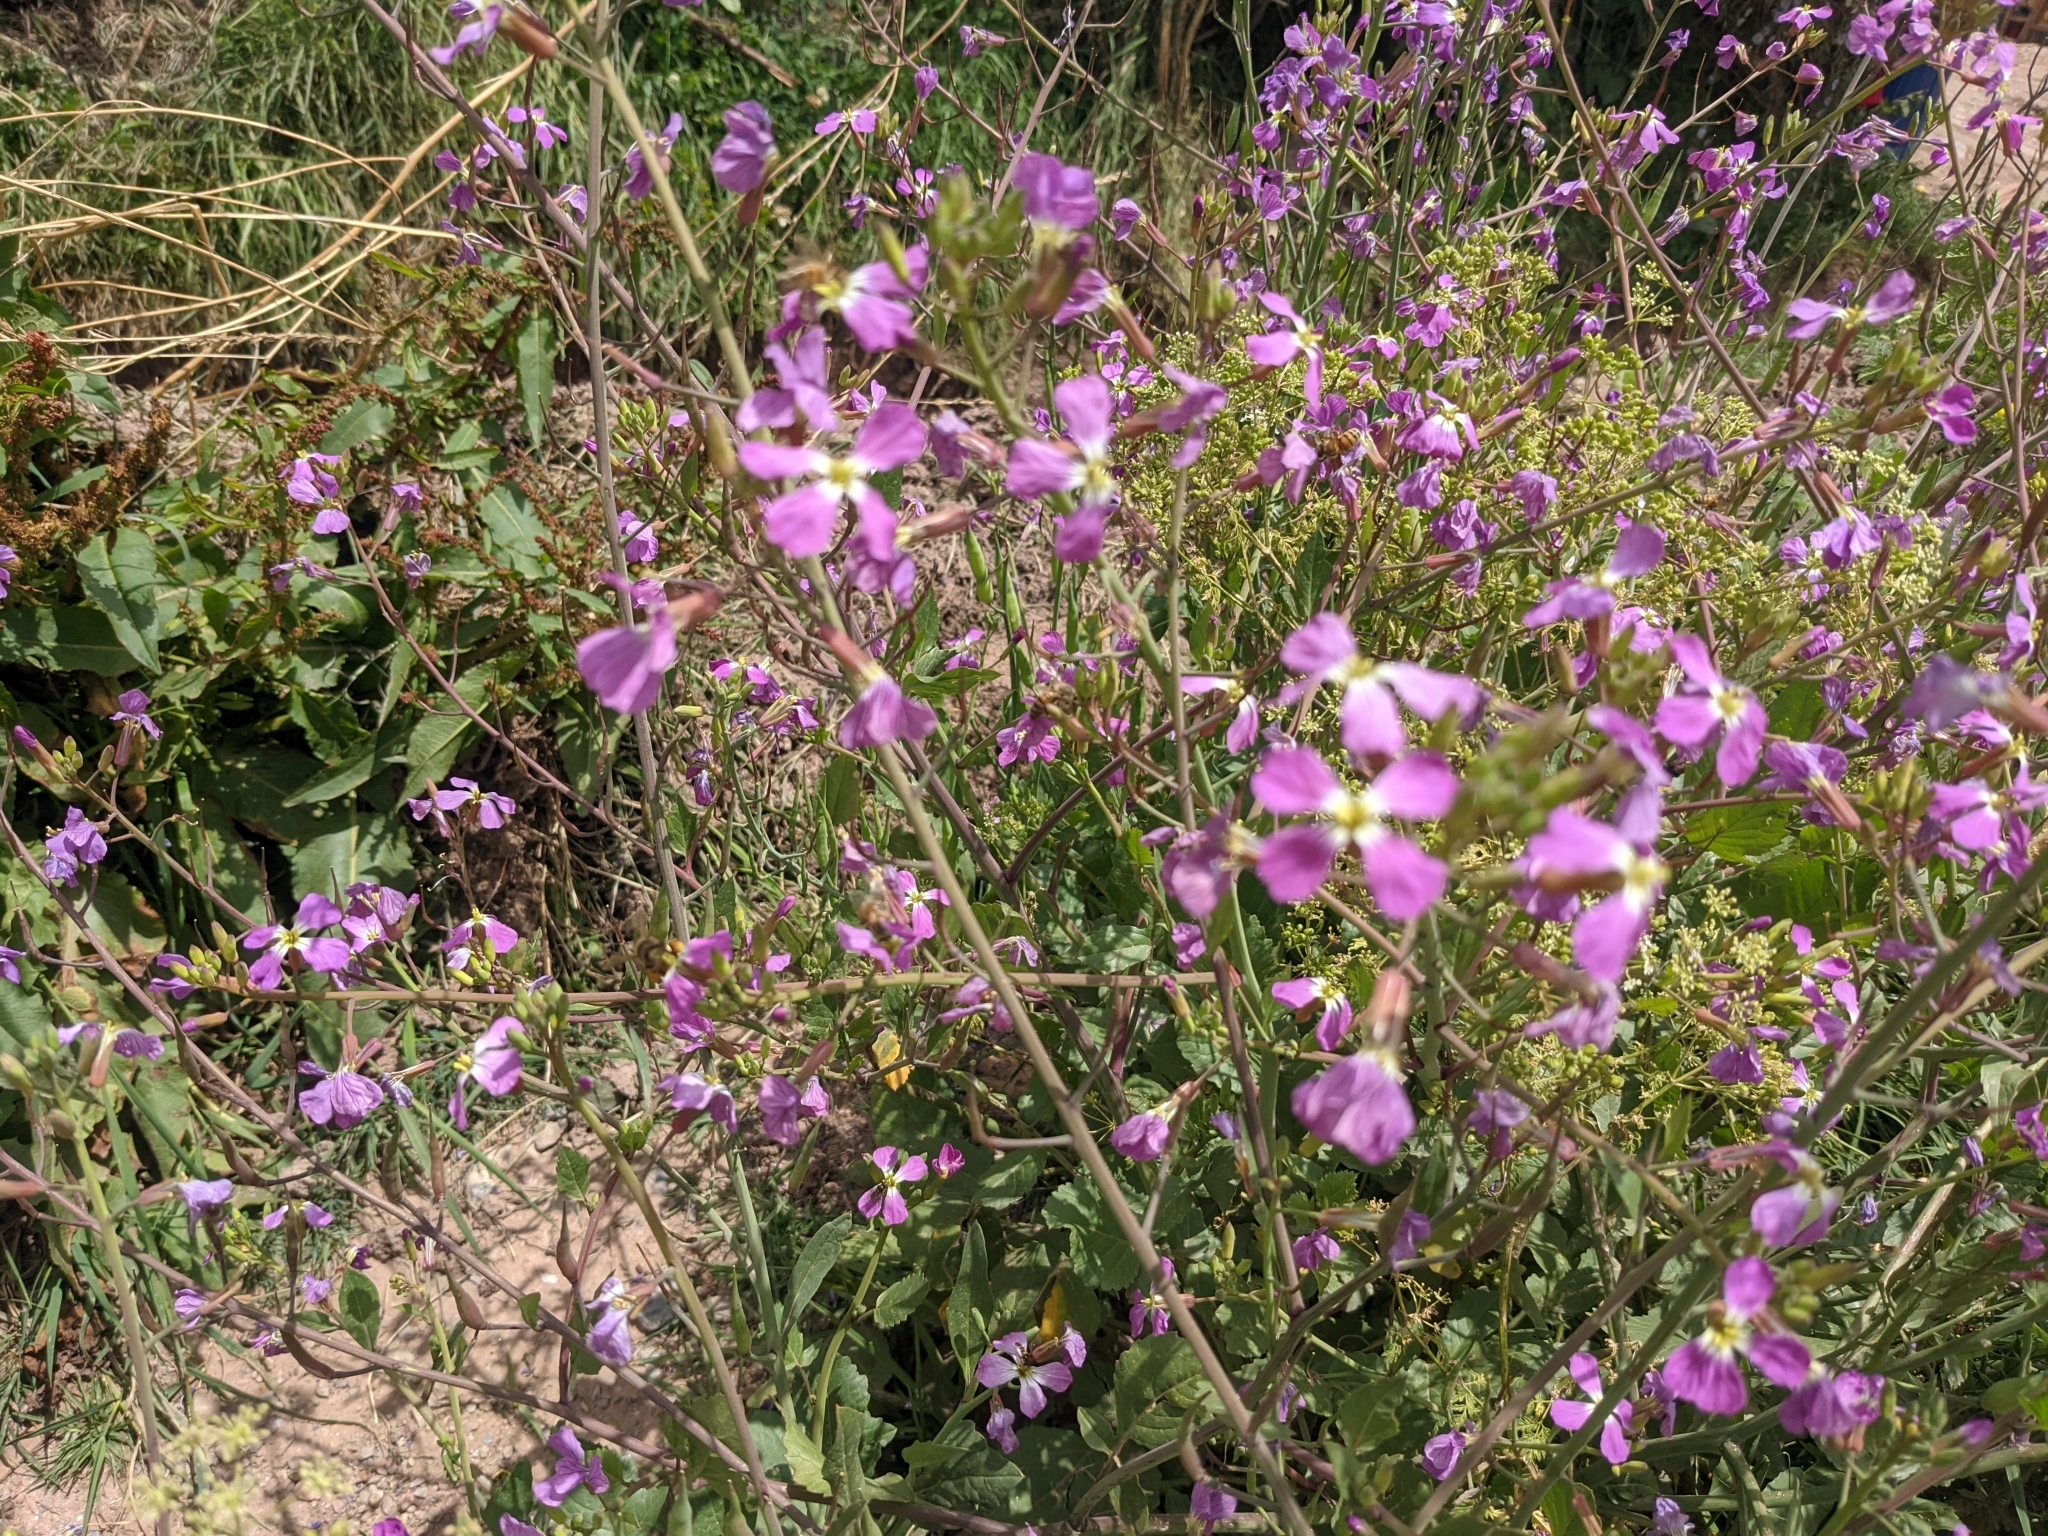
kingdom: Plantae
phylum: Tracheophyta
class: Magnoliopsida
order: Brassicales
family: Brassicaceae
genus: Raphanus
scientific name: Raphanus sativus
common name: Cultivated radish
